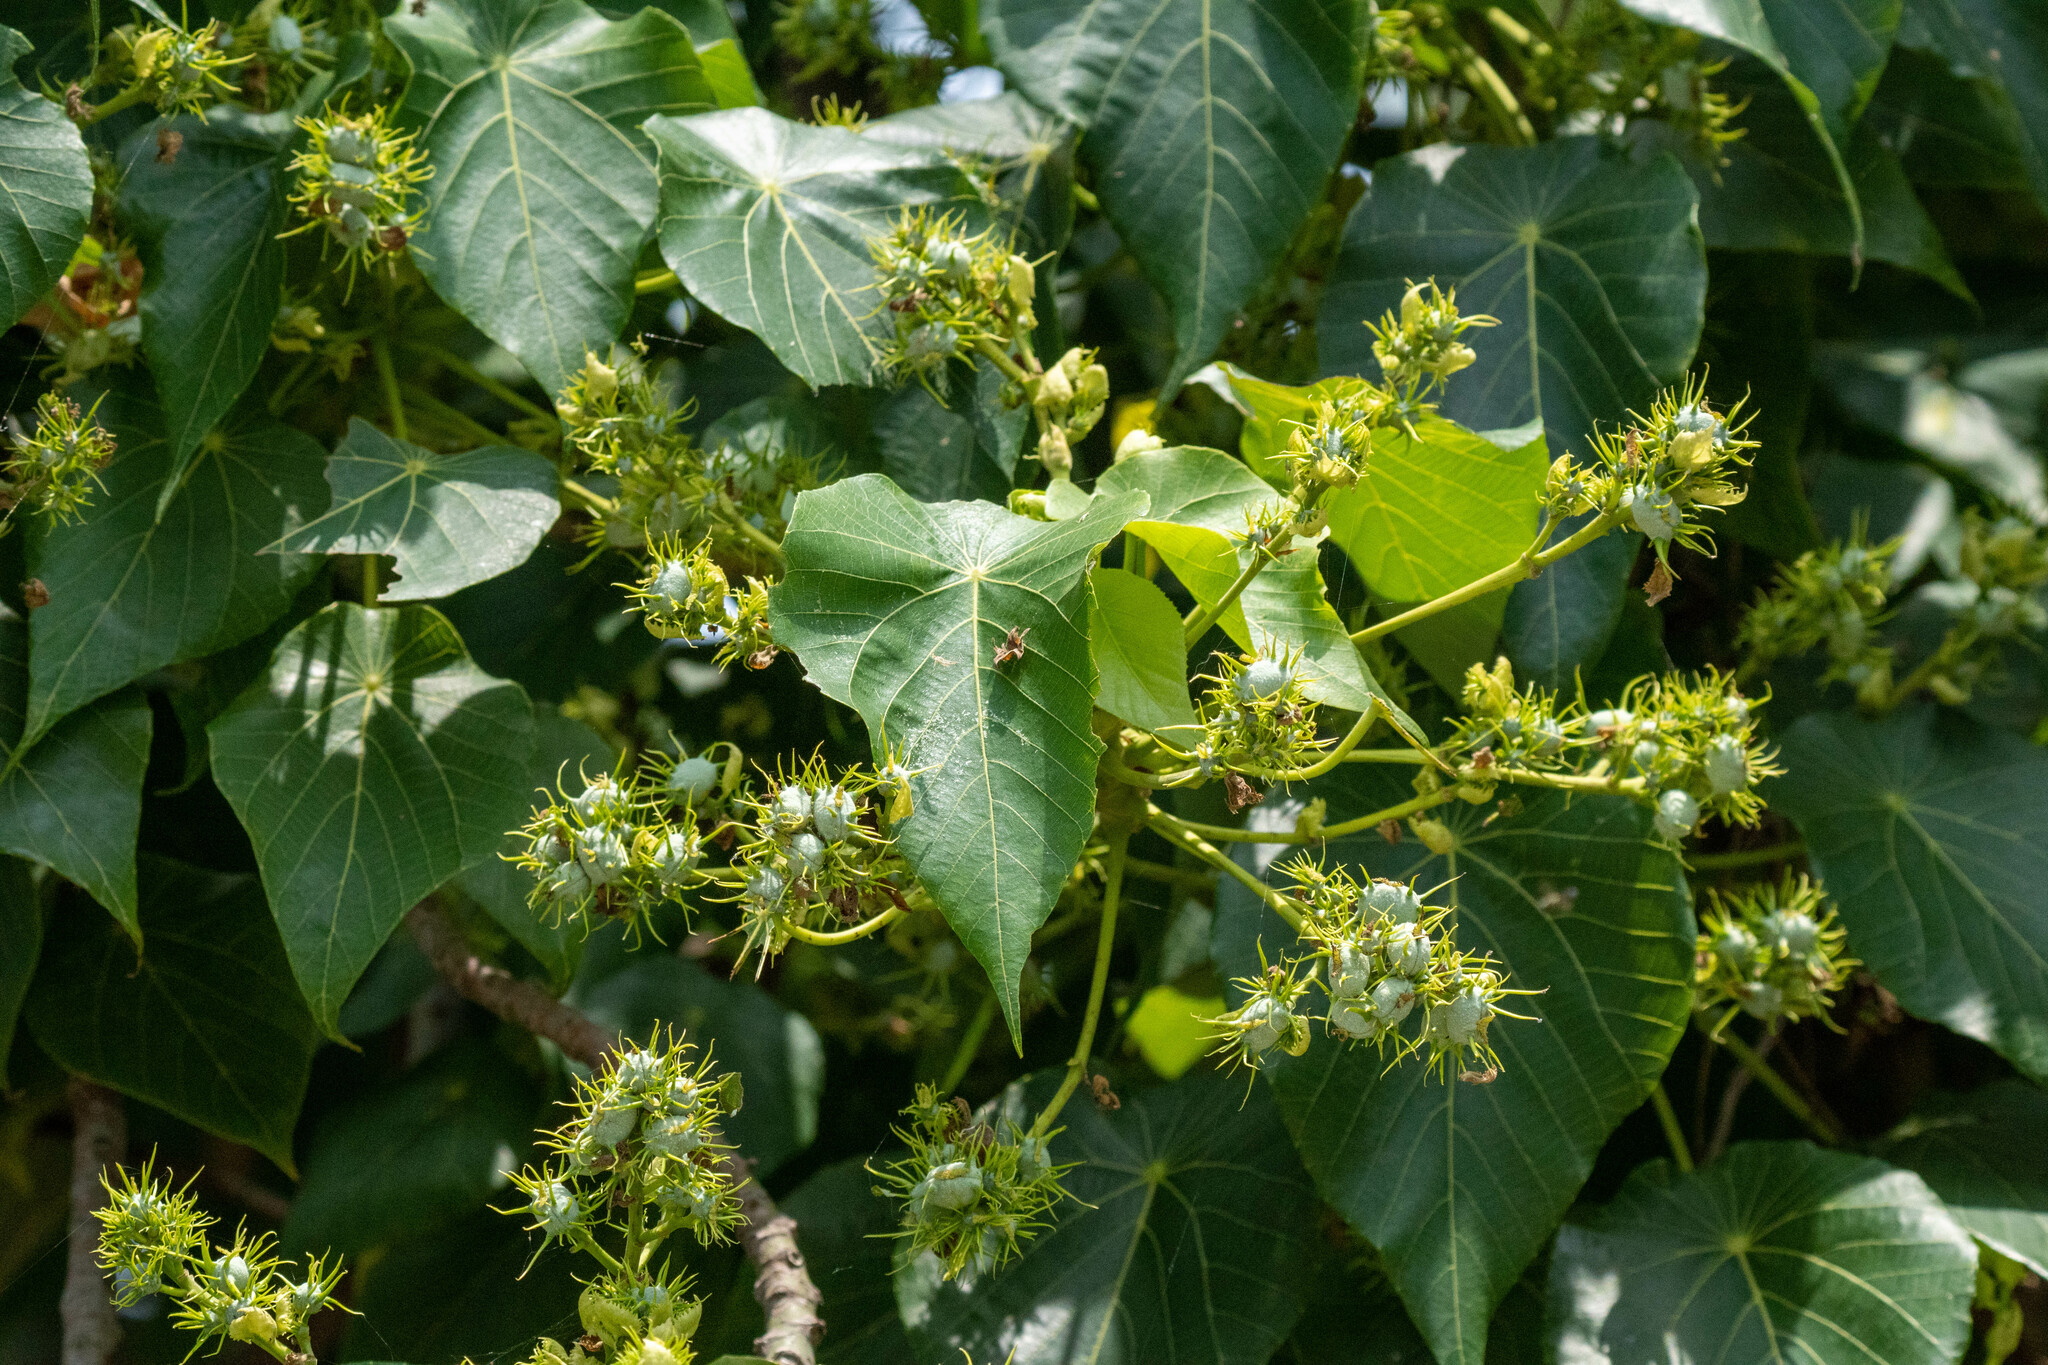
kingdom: Plantae
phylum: Tracheophyta
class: Magnoliopsida
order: Malpighiales
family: Euphorbiaceae
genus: Macaranga
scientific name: Macaranga tanarius
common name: Parasol leaf tree
